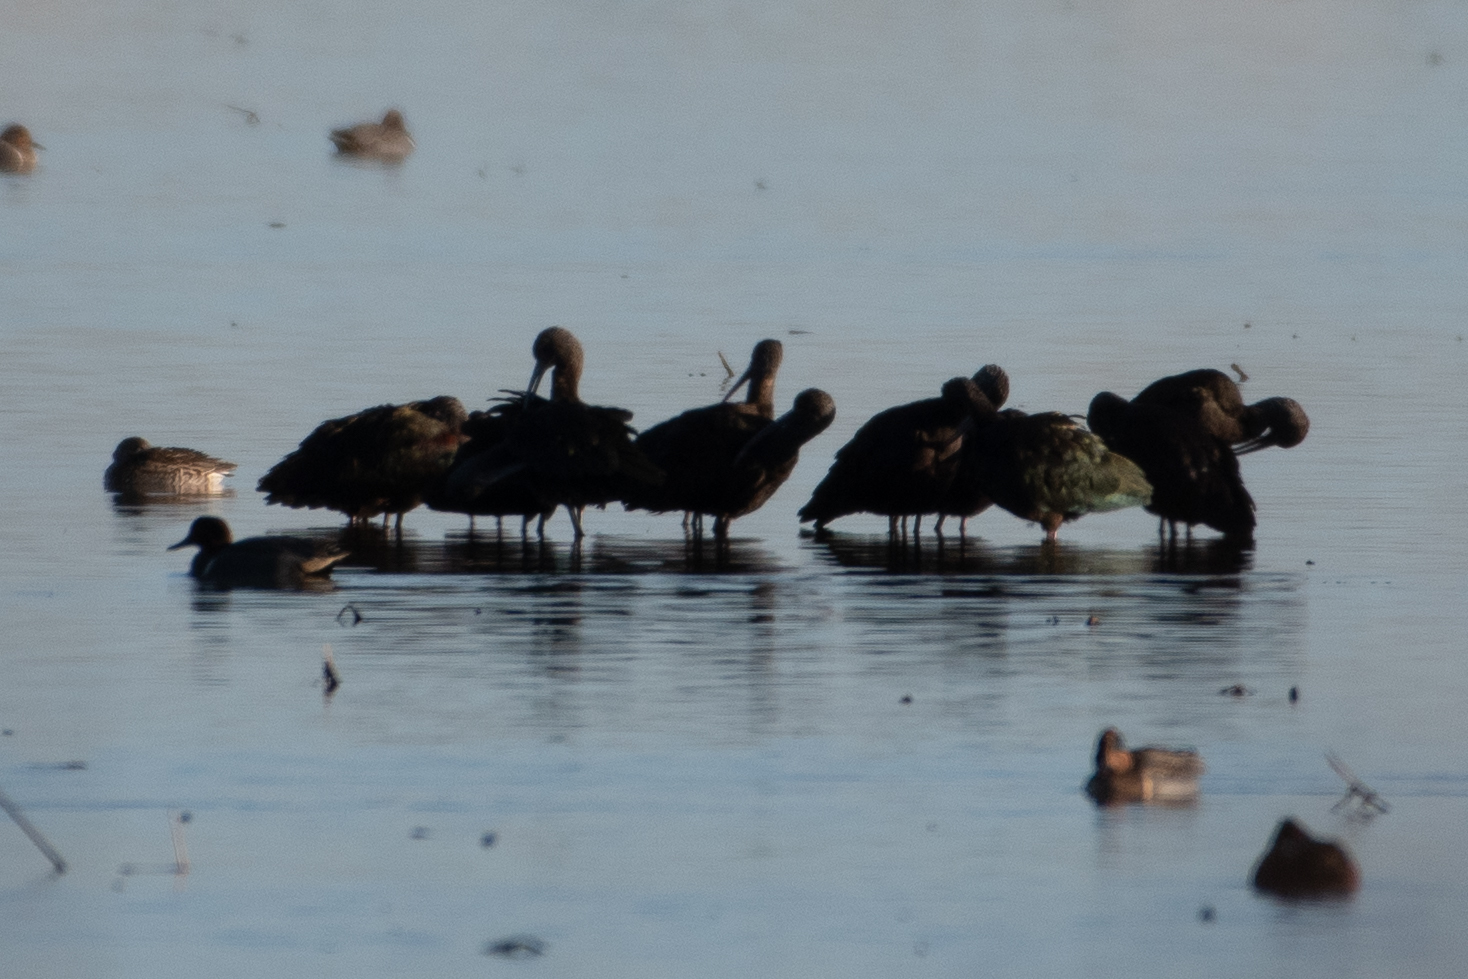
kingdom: Animalia
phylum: Chordata
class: Aves
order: Pelecaniformes
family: Threskiornithidae
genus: Plegadis
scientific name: Plegadis chihi
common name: White-faced ibis
